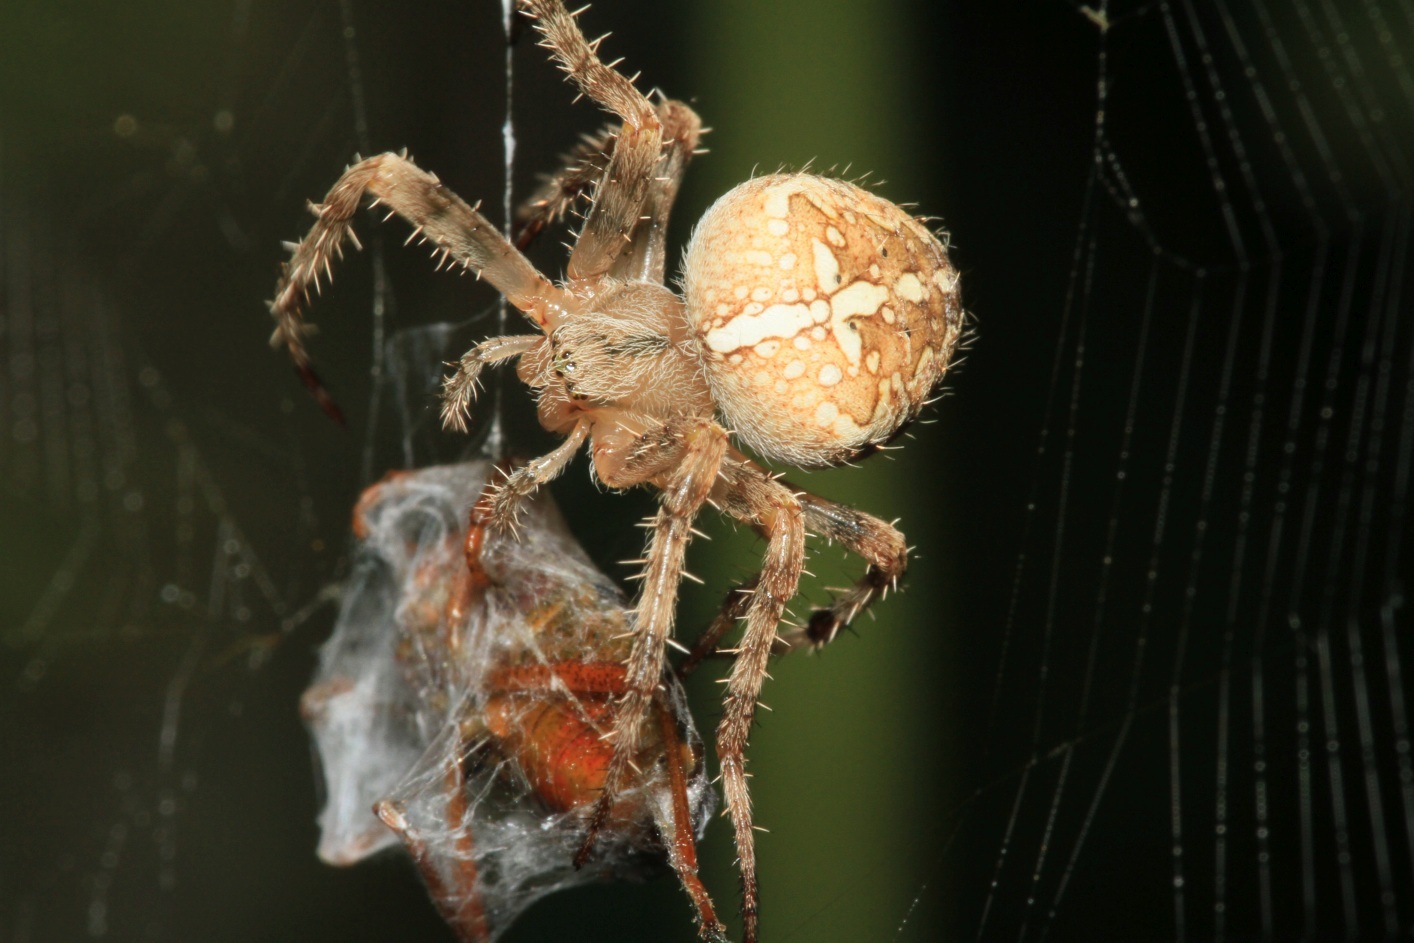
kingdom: Animalia
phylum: Arthropoda
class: Arachnida
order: Araneae
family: Araneidae
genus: Araneus
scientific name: Araneus diadematus
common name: Cross orbweaver
